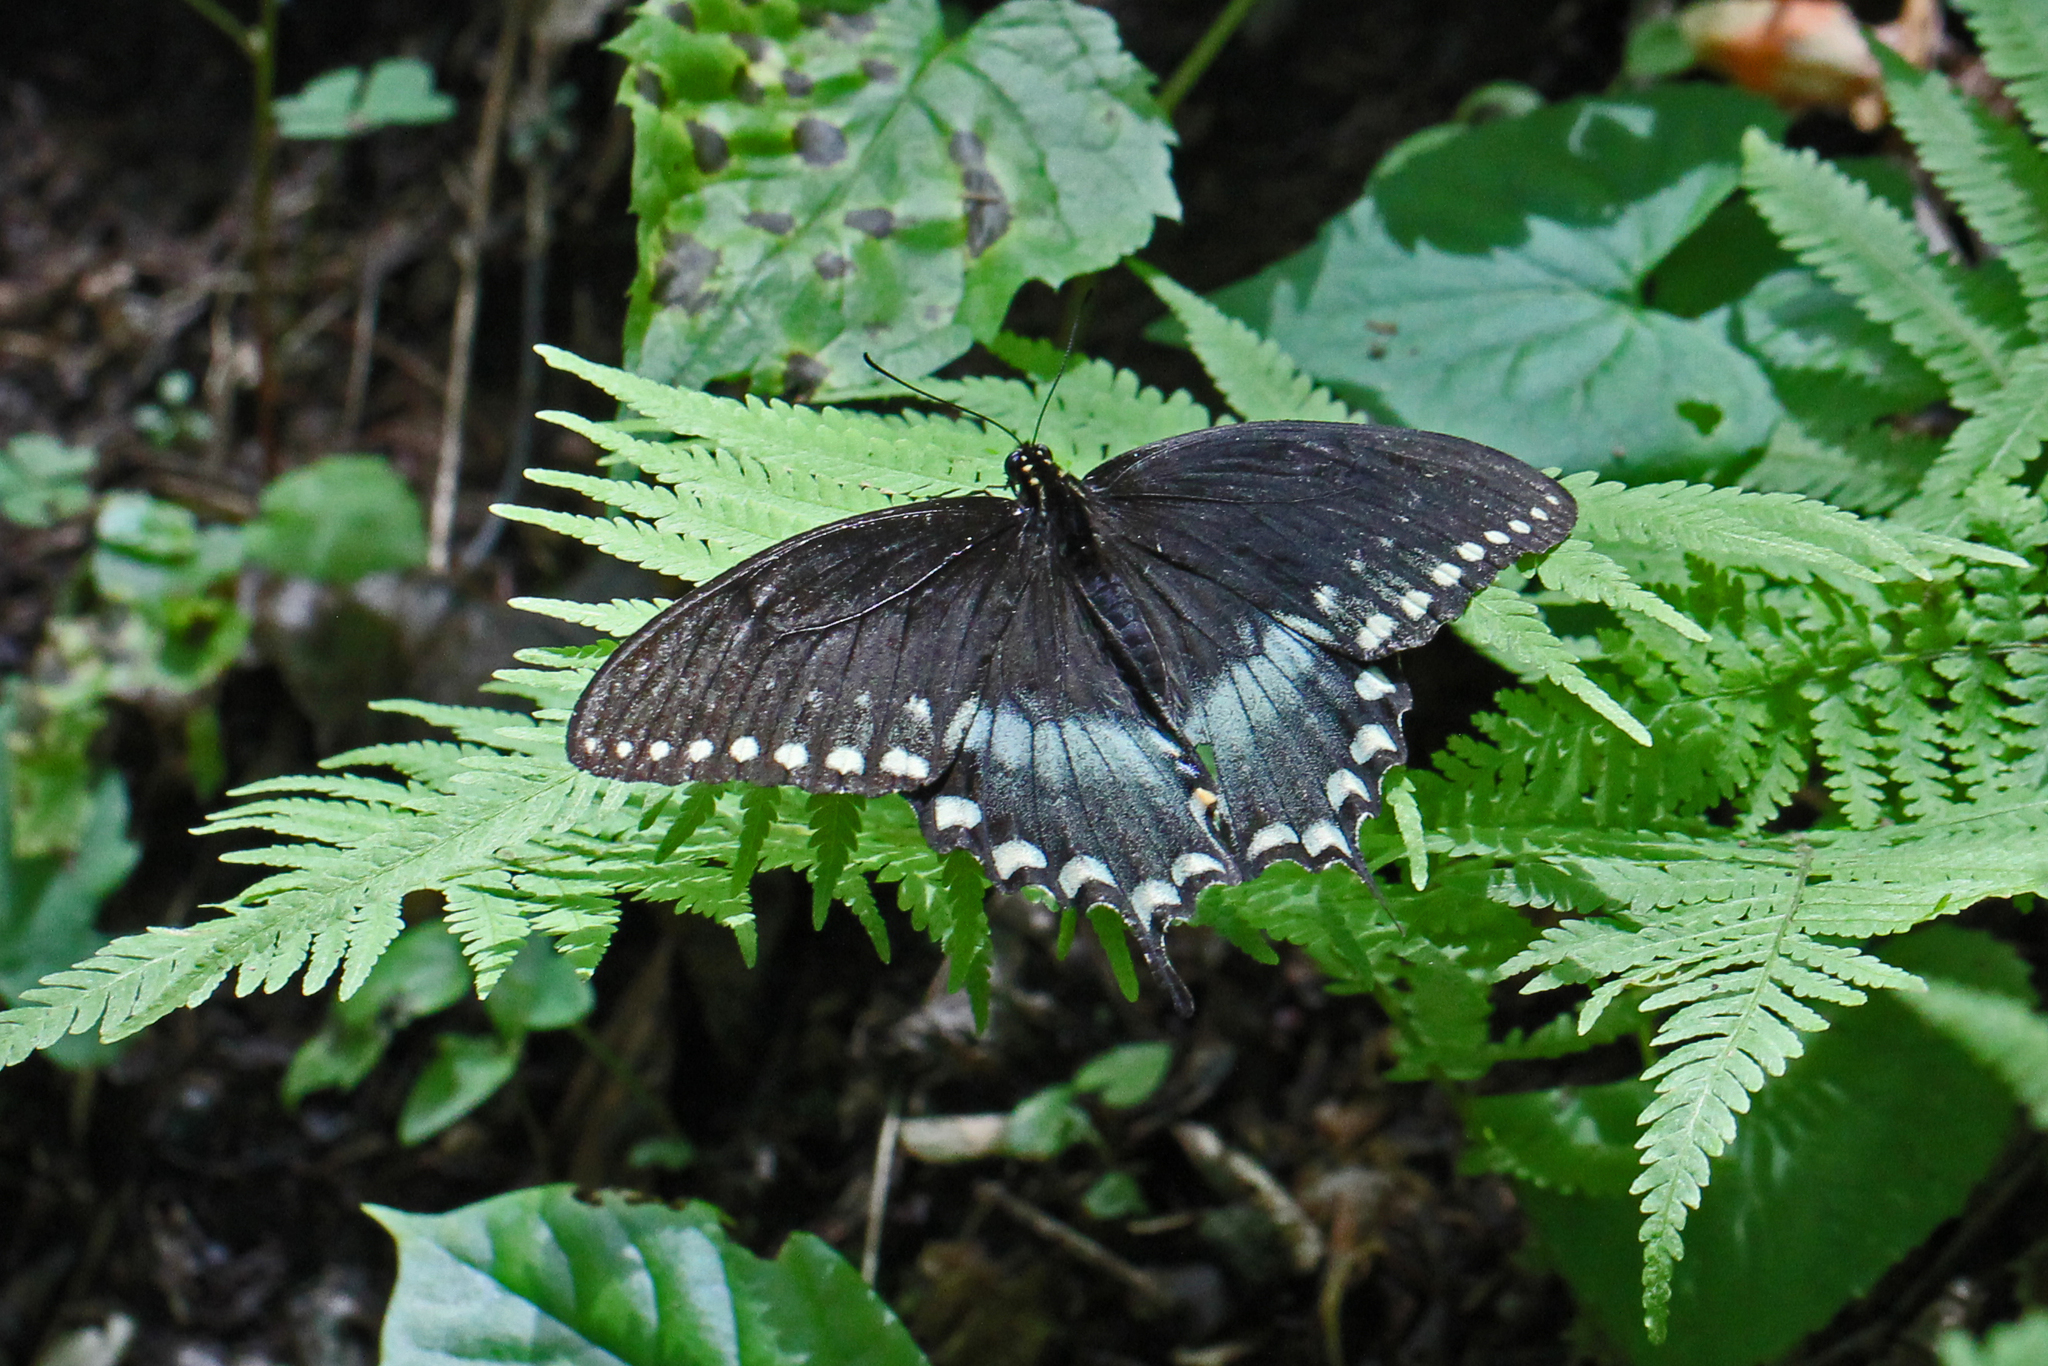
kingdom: Animalia
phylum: Arthropoda
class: Insecta
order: Lepidoptera
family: Papilionidae
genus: Papilio
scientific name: Papilio troilus
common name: Spicebush swallowtail
